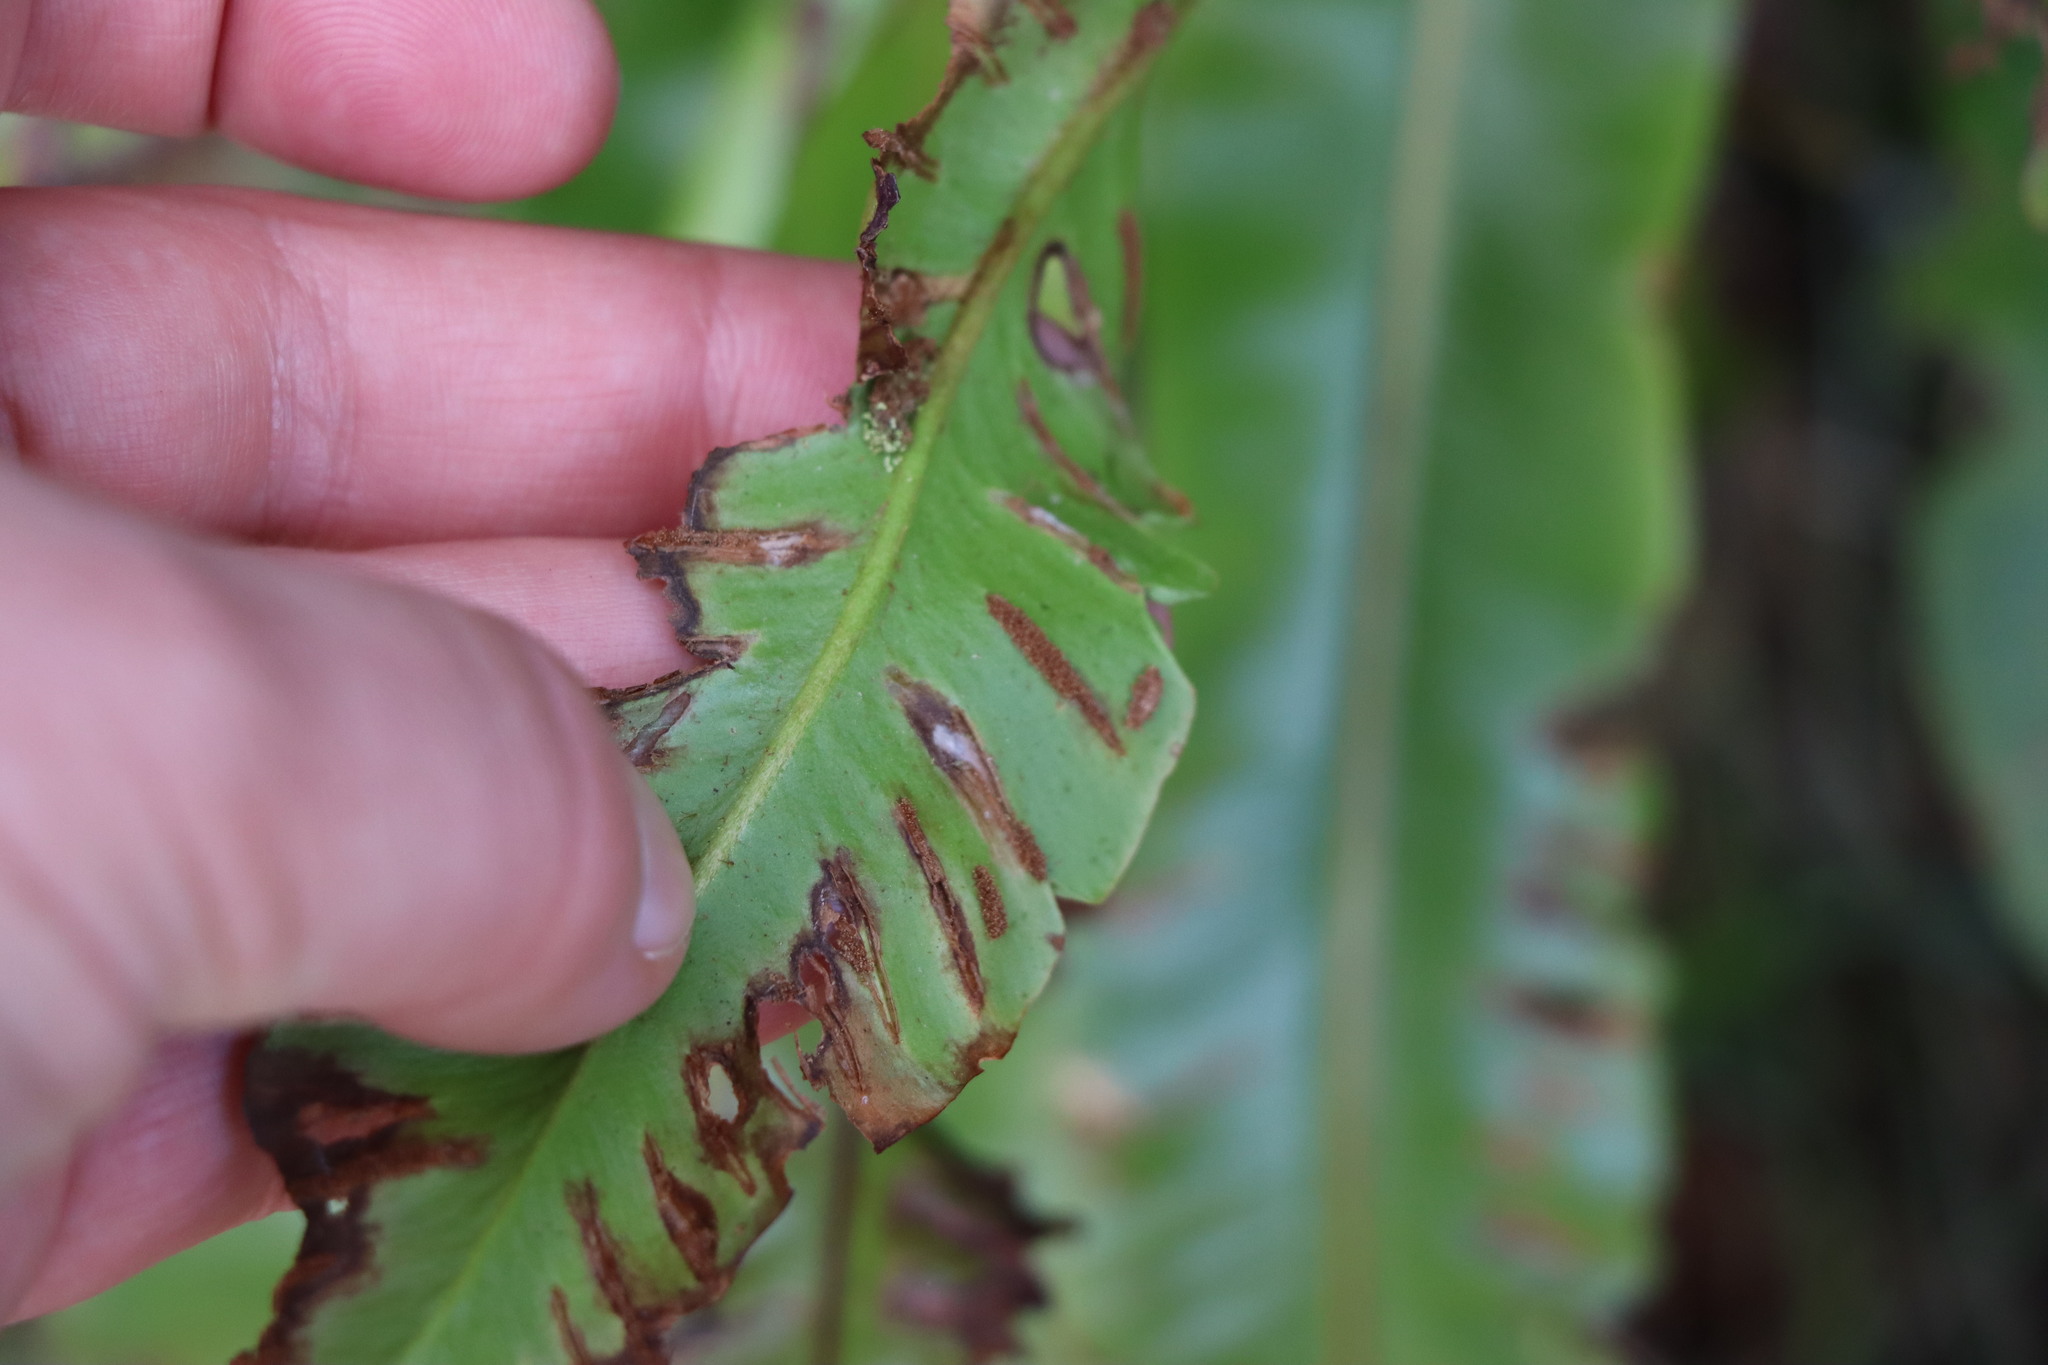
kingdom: Plantae
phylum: Tracheophyta
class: Polypodiopsida
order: Polypodiales
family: Aspleniaceae
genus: Asplenium
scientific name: Asplenium scolopendrium
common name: Hart's-tongue fern
